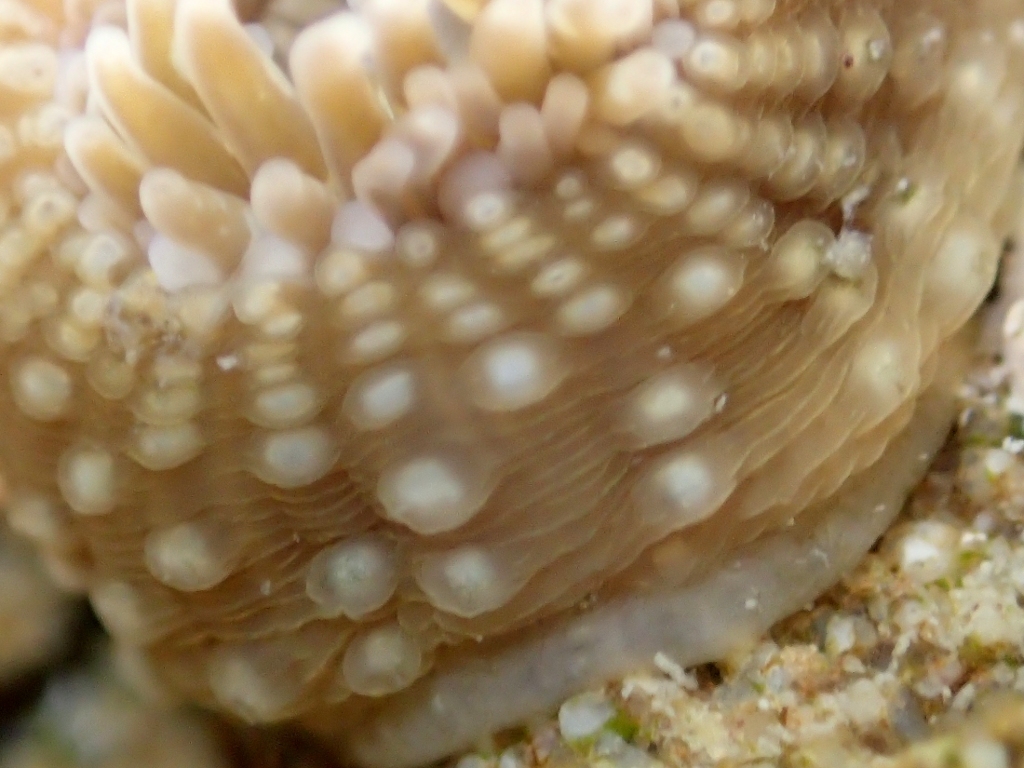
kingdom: Animalia
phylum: Cnidaria
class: Anthozoa
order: Actiniaria
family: Actiniidae
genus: Anthopleura
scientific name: Anthopleura hermaphroditica
